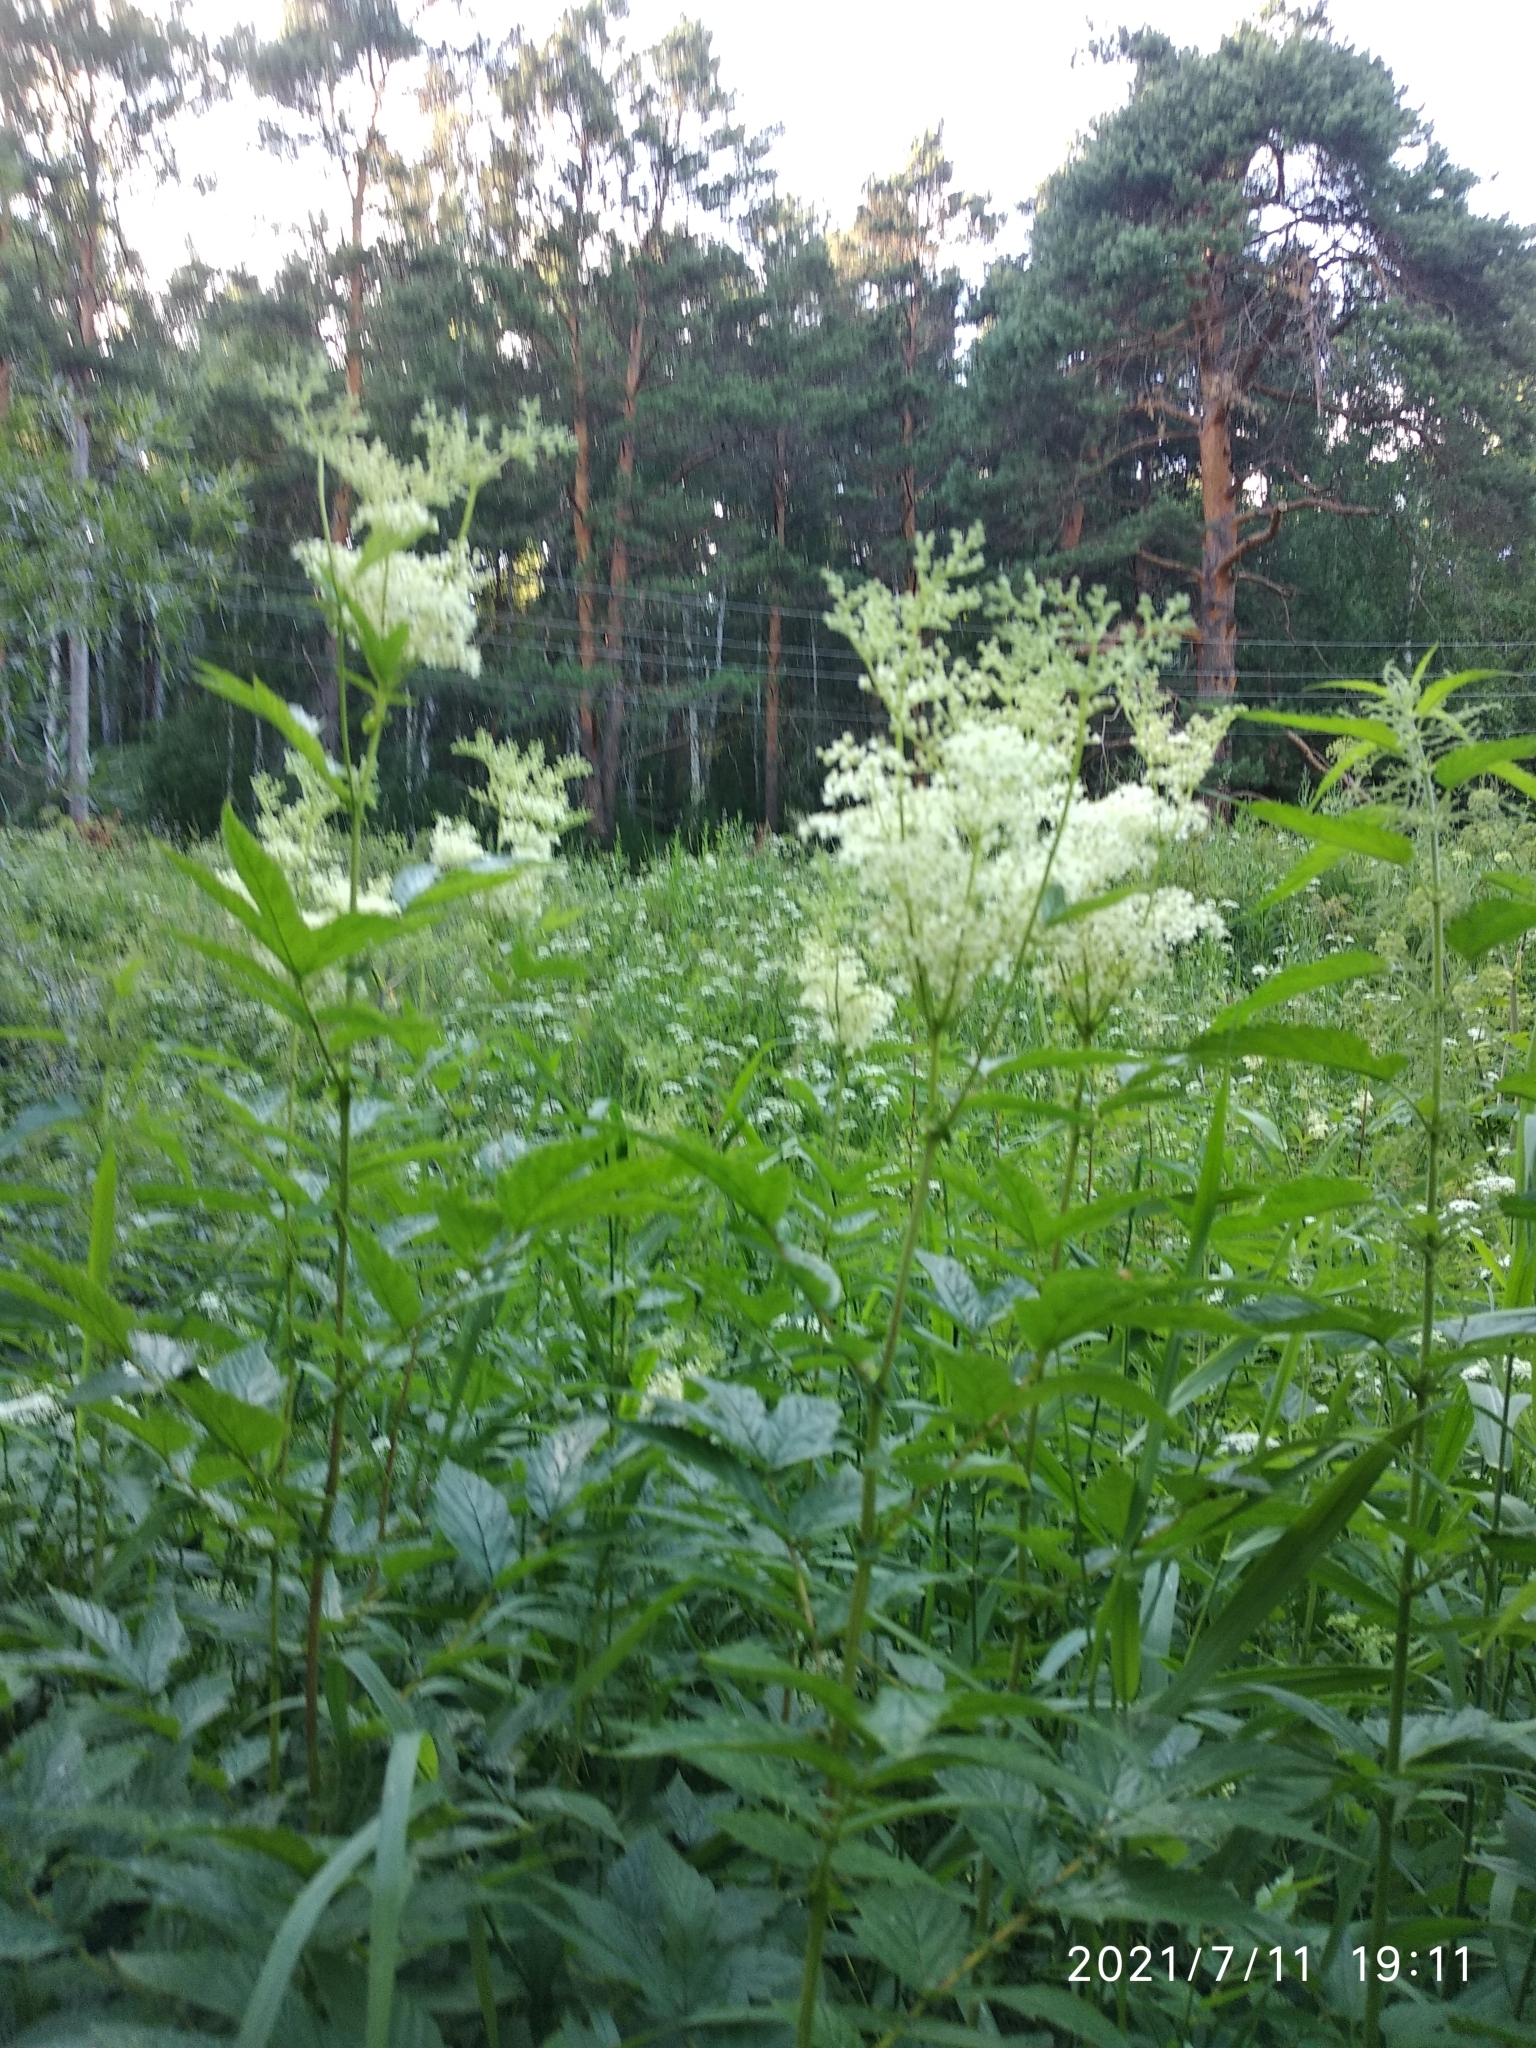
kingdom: Plantae
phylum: Tracheophyta
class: Magnoliopsida
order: Rosales
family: Rosaceae
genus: Filipendula
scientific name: Filipendula ulmaria
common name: Meadowsweet
